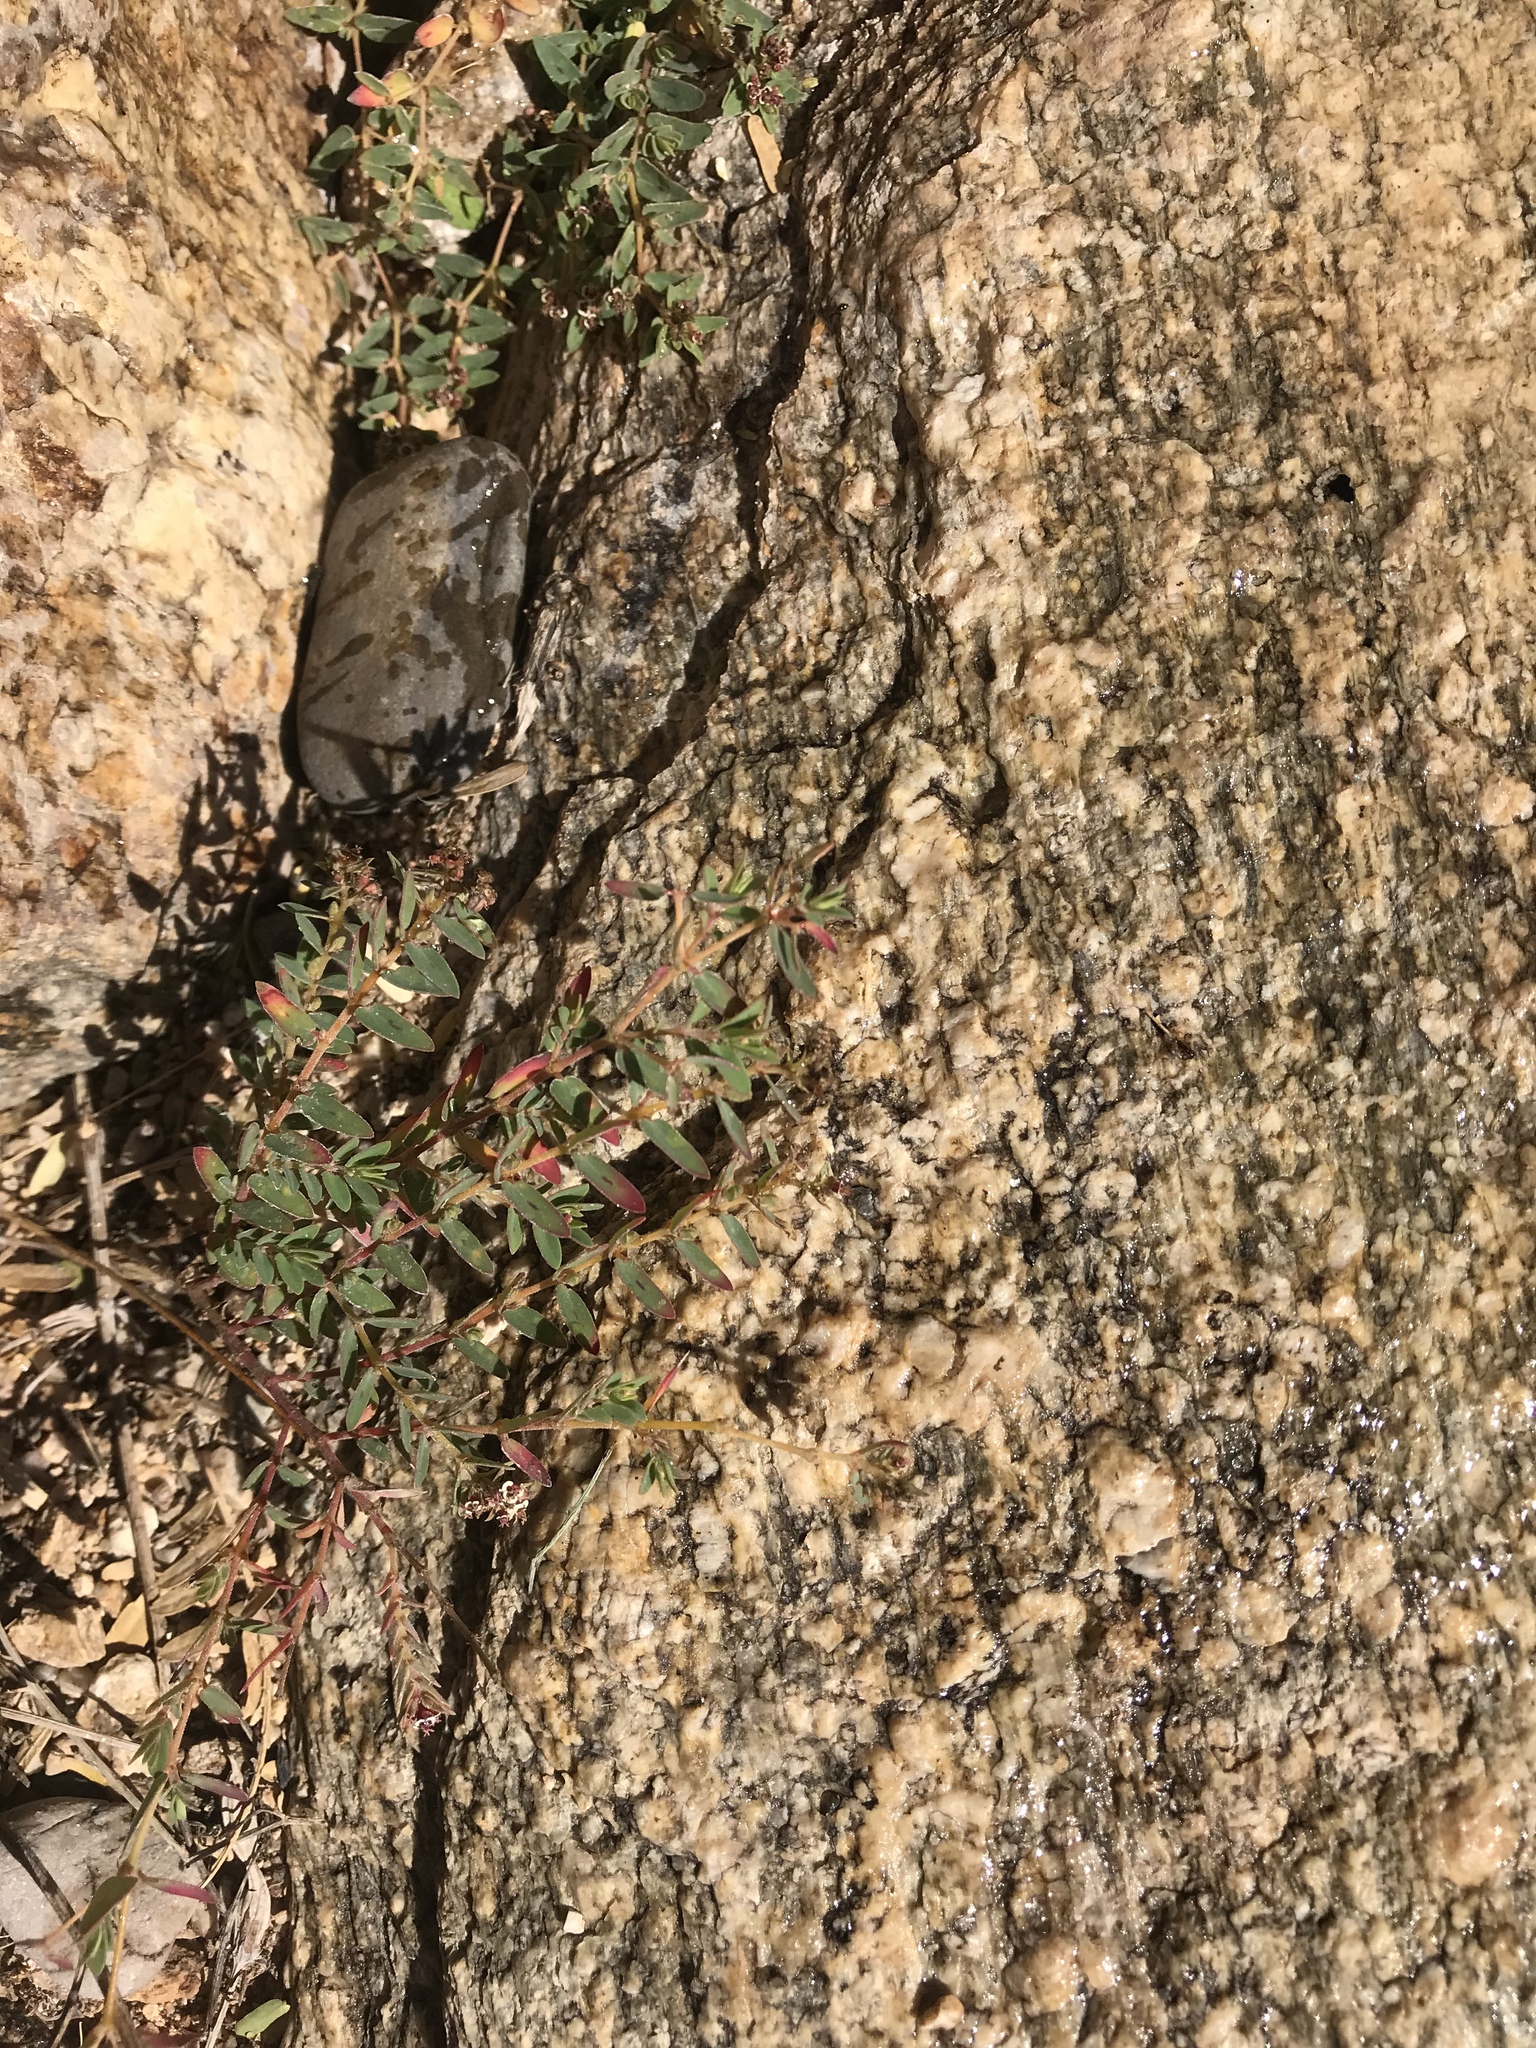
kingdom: Plantae
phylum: Tracheophyta
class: Magnoliopsida
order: Malpighiales
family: Euphorbiaceae
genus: Euphorbia
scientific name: Euphorbia capitellata
